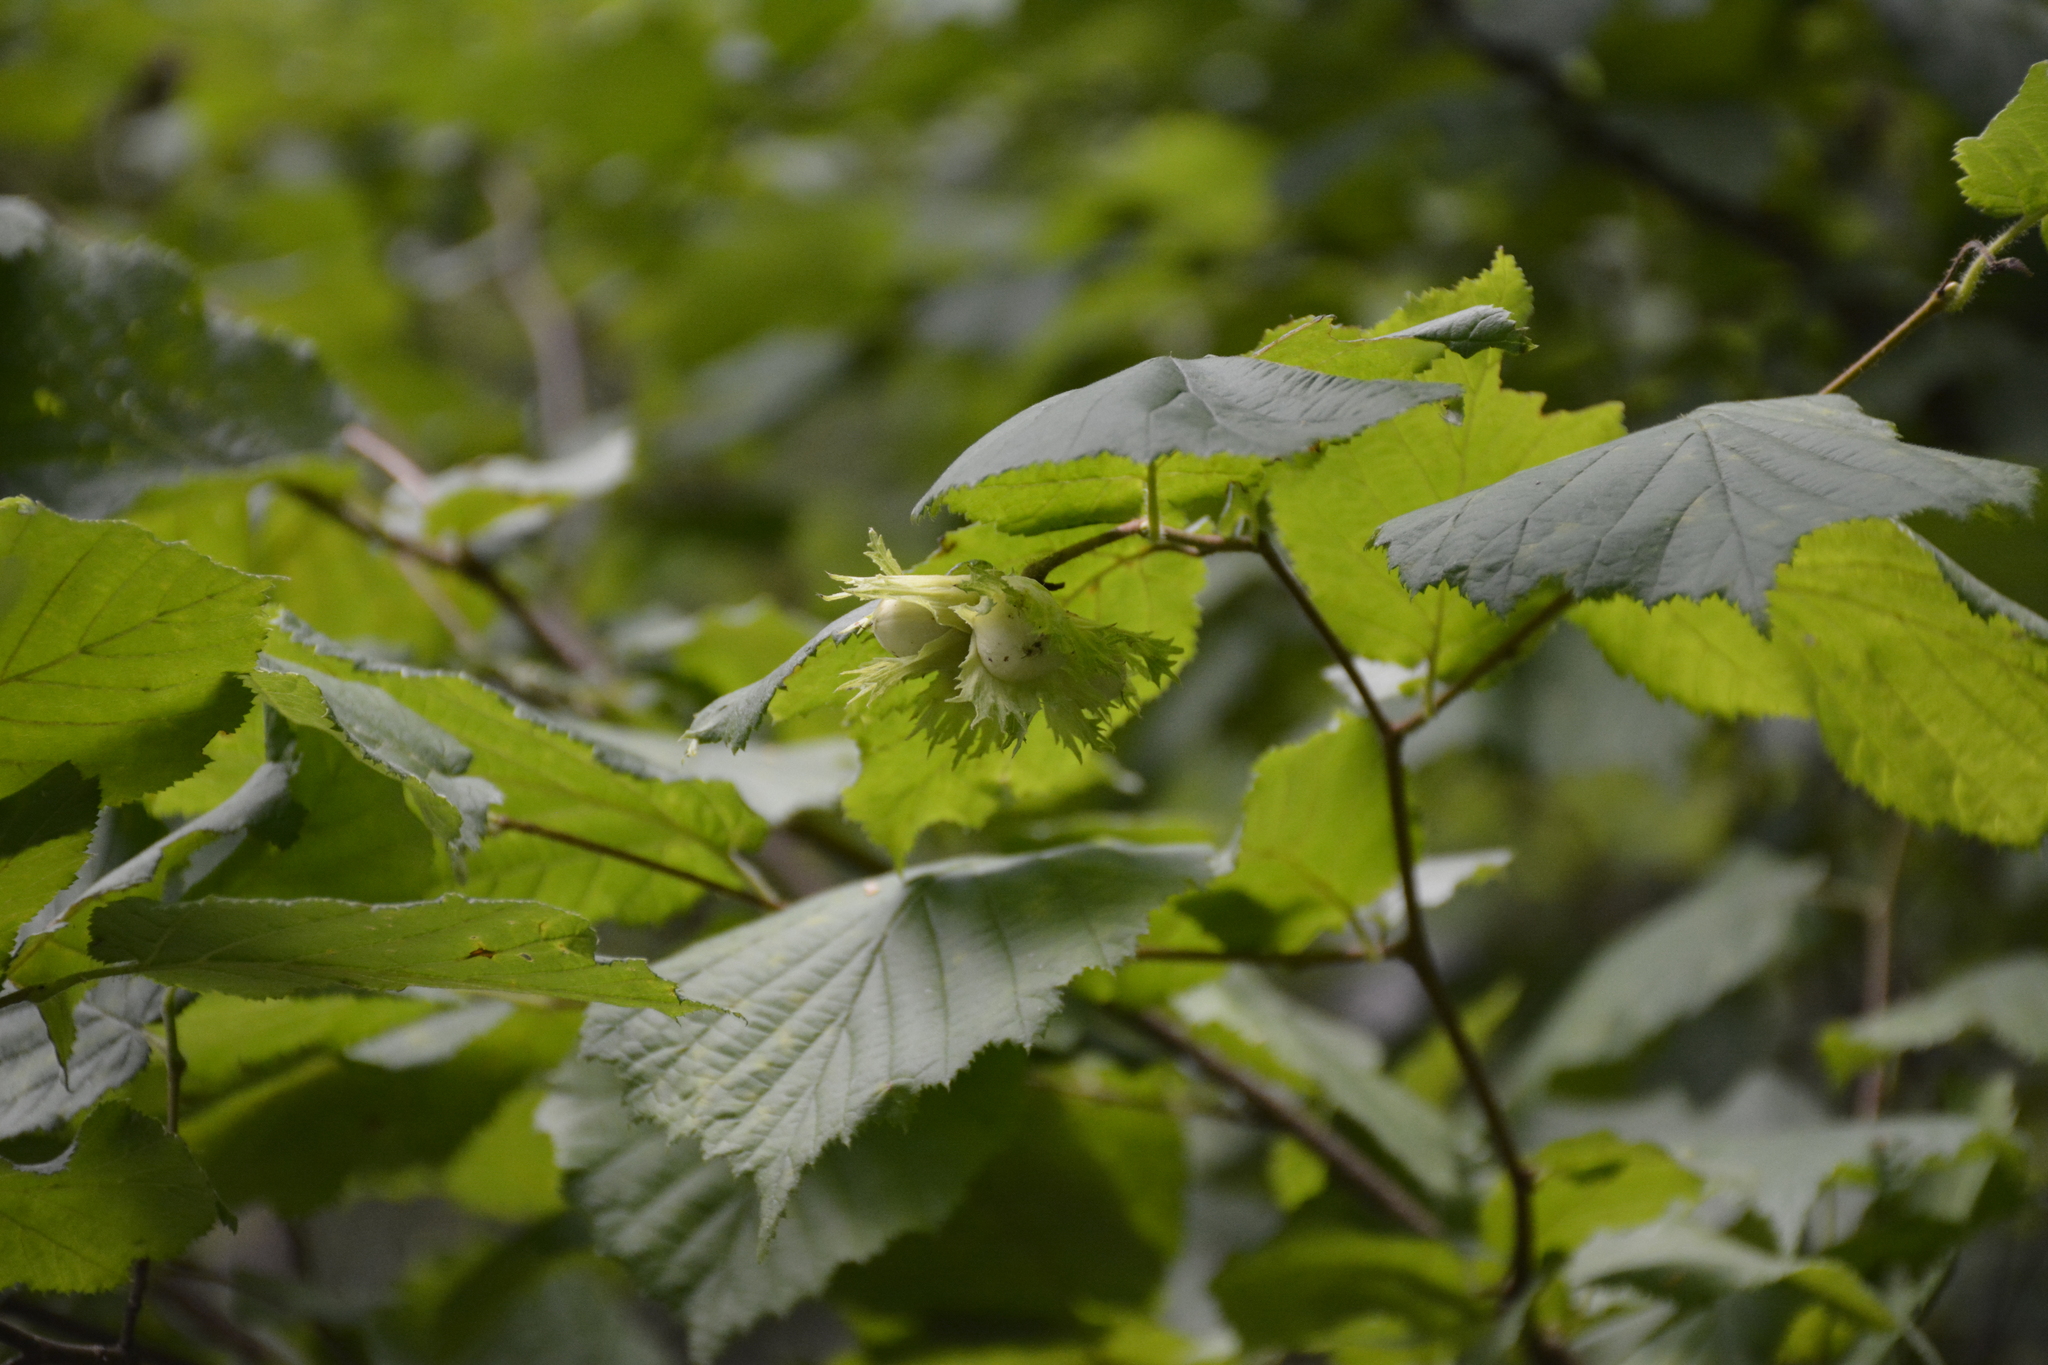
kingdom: Plantae
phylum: Tracheophyta
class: Magnoliopsida
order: Fagales
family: Betulaceae
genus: Corylus
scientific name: Corylus avellana
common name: European hazel
